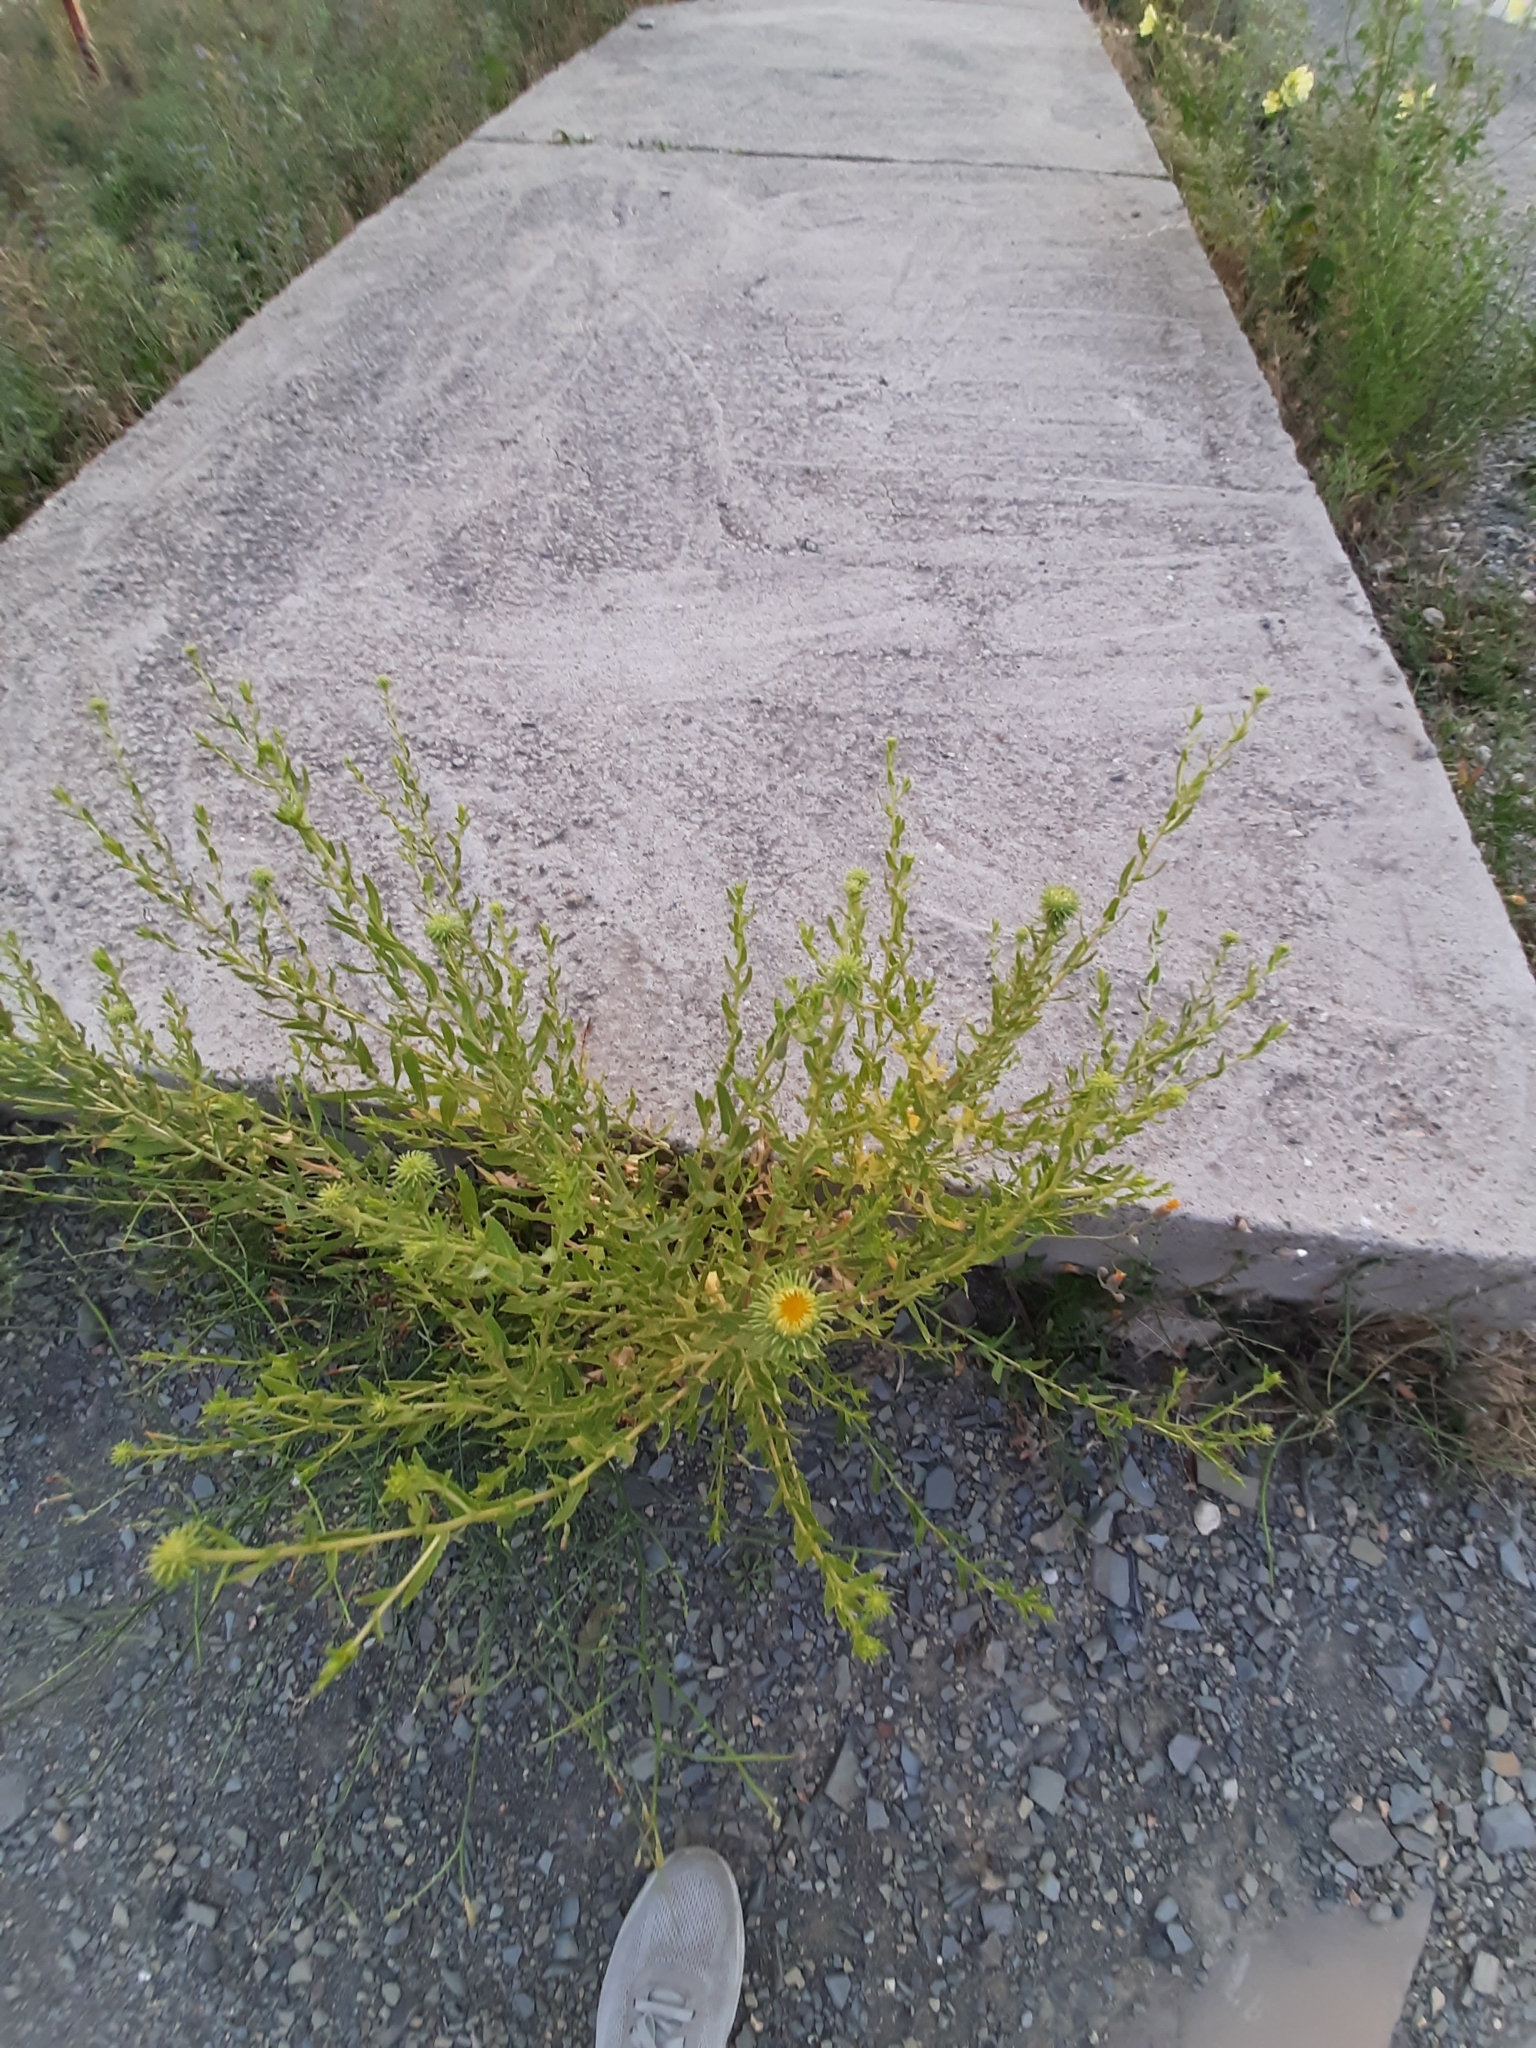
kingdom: Plantae
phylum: Tracheophyta
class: Magnoliopsida
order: Asterales
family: Asteraceae
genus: Grindelia
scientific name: Grindelia squarrosa
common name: Curly-cup gumweed
